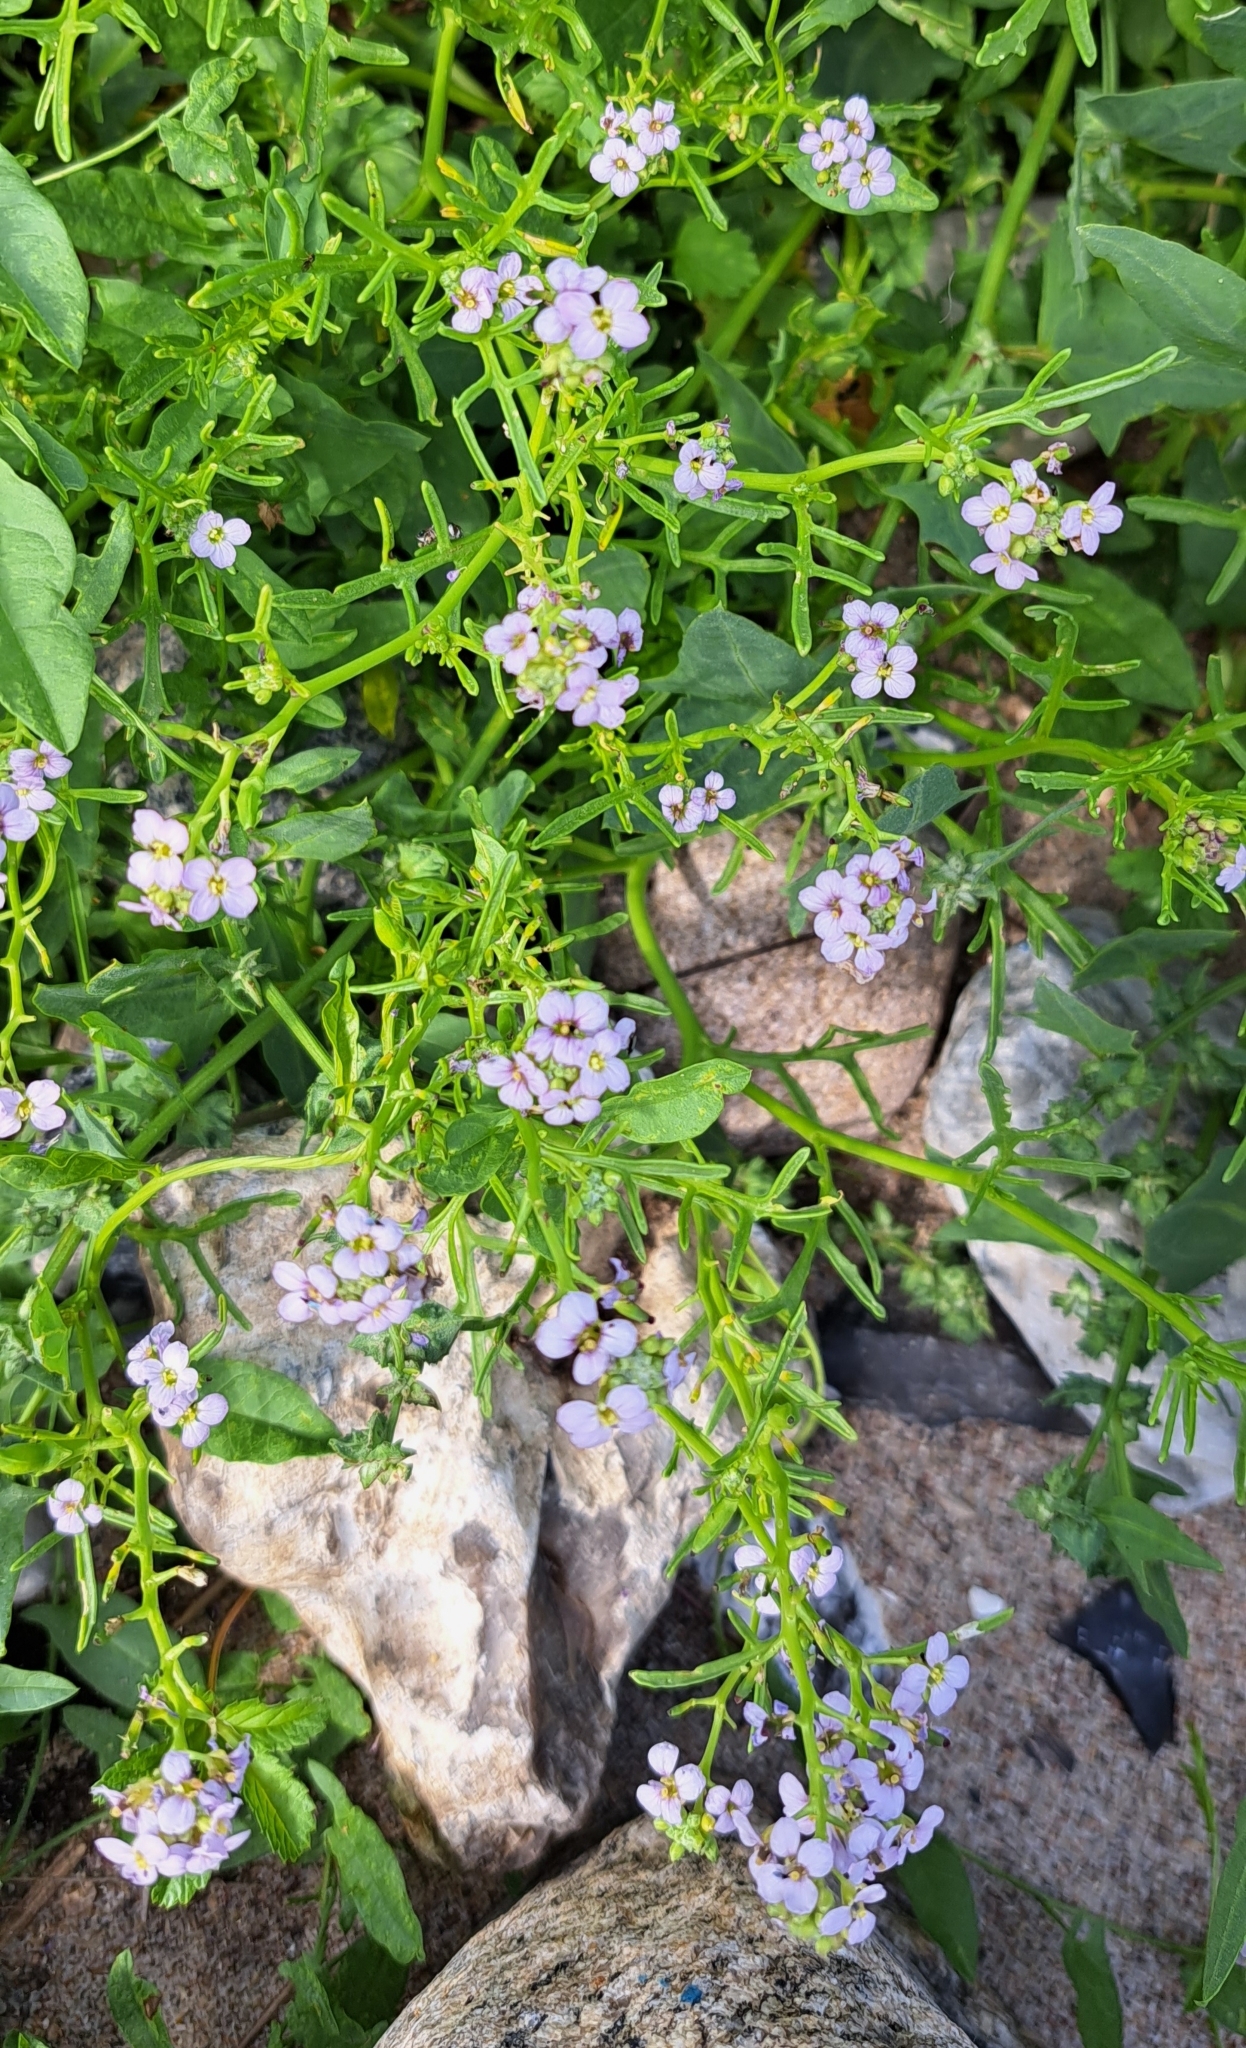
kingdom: Plantae
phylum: Tracheophyta
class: Magnoliopsida
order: Brassicales
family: Brassicaceae
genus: Cakile
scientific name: Cakile maritima
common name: Sea rocket
